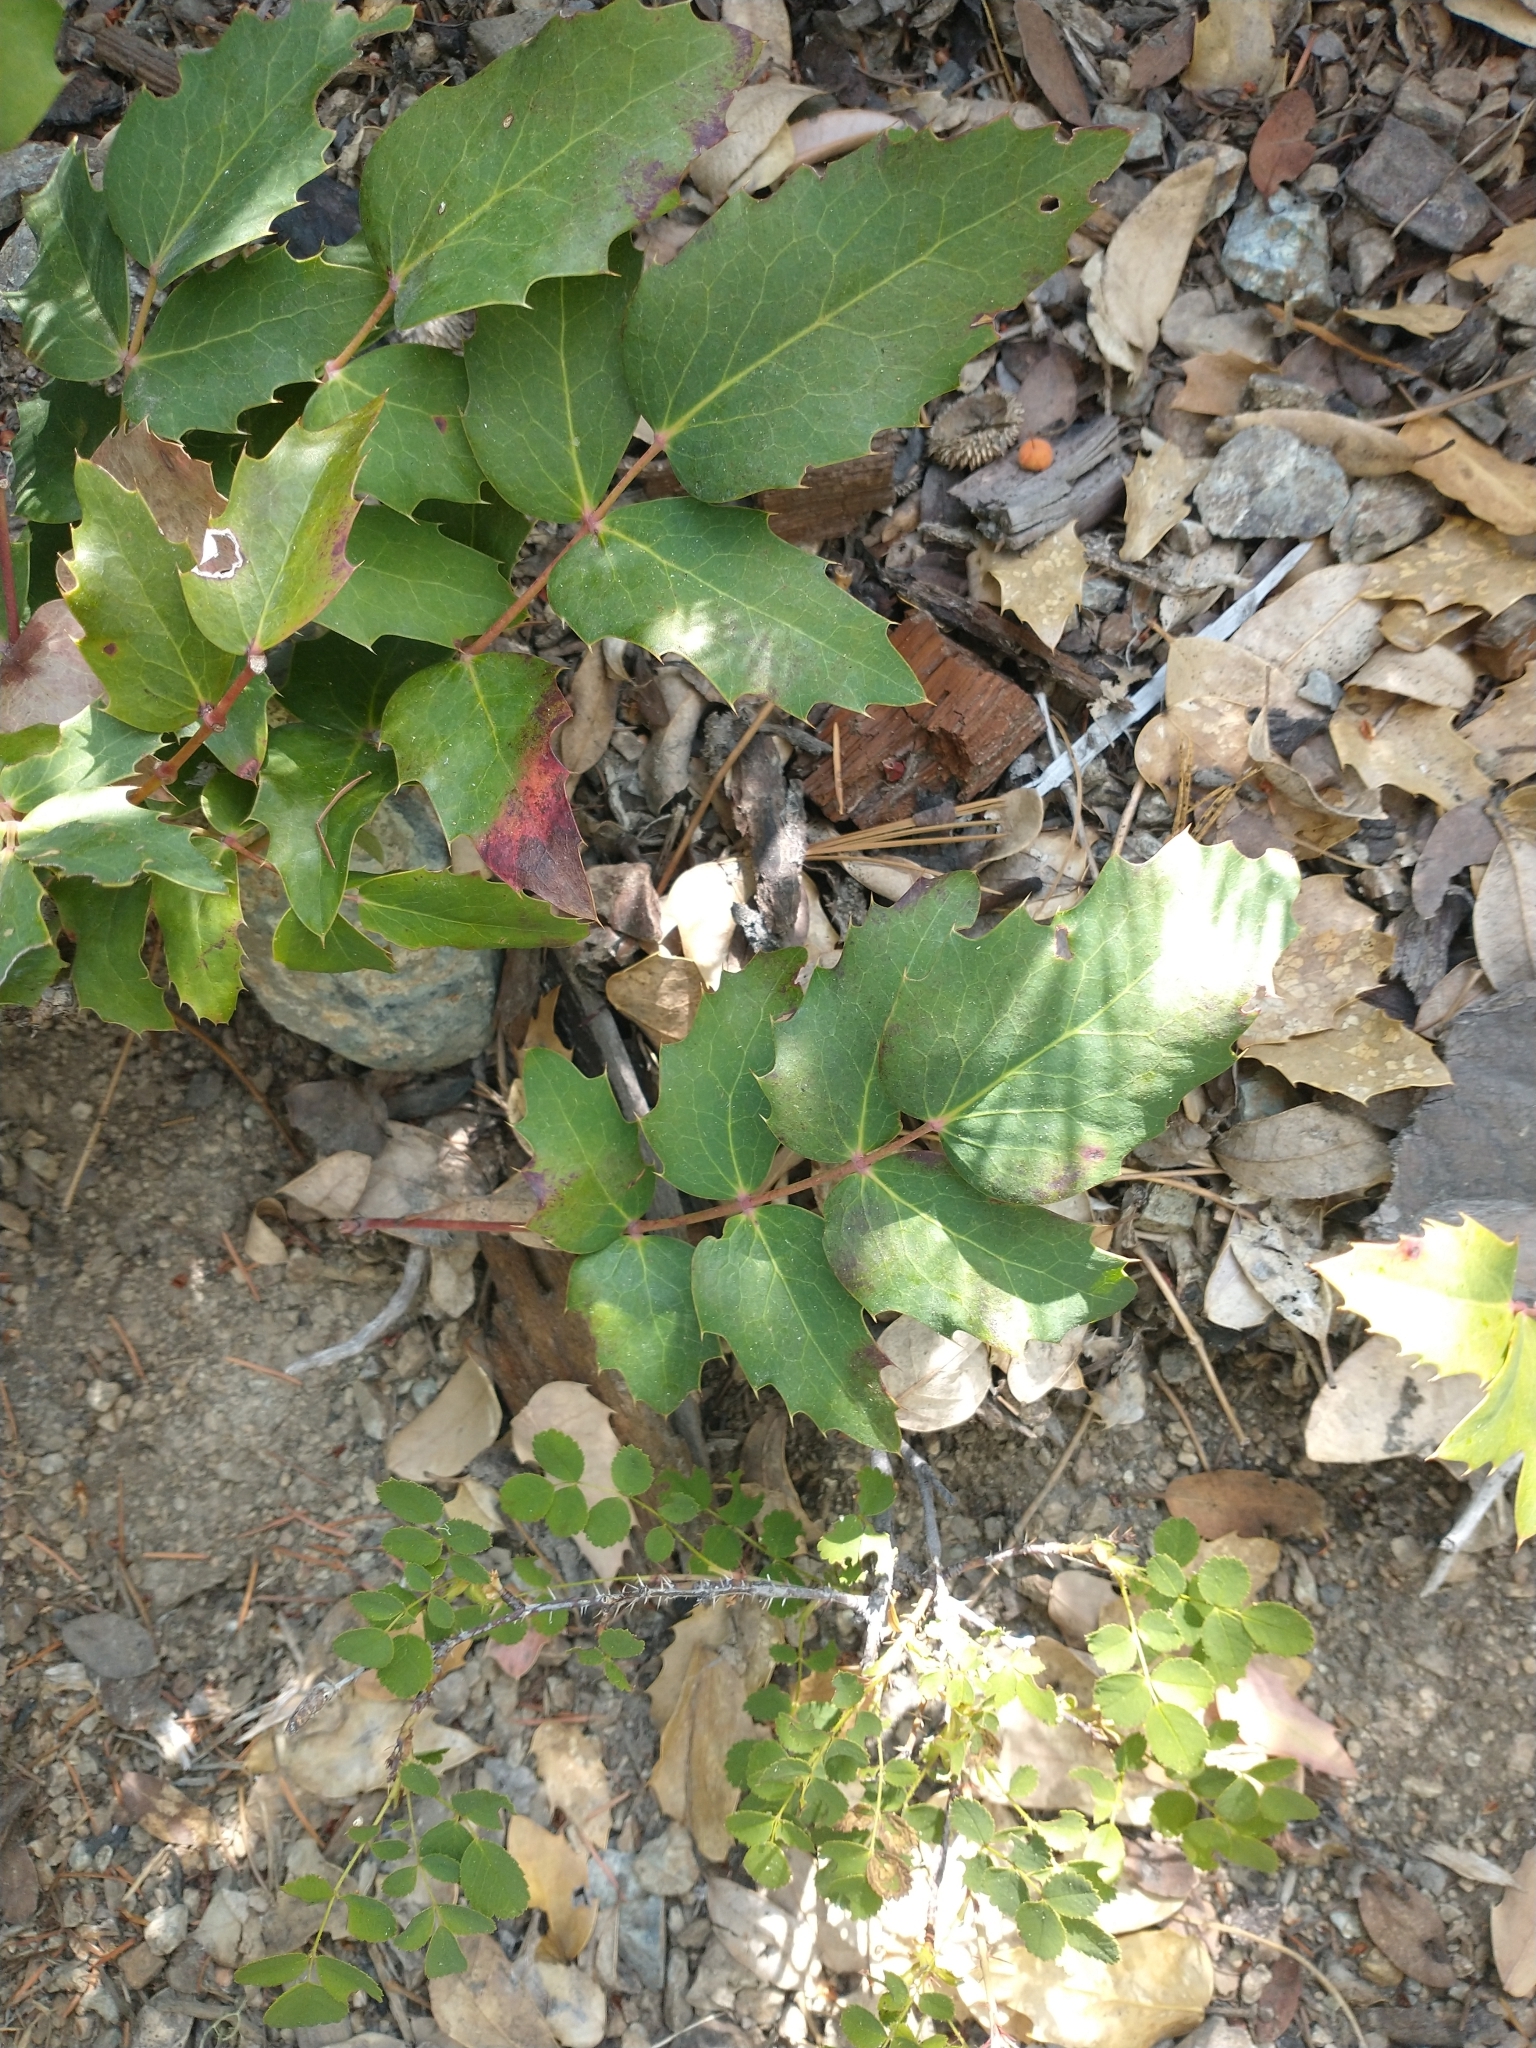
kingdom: Plantae
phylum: Tracheophyta
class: Magnoliopsida
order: Ranunculales
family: Berberidaceae
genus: Mahonia
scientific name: Mahonia nervosa
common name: Cascade oregon-grape
